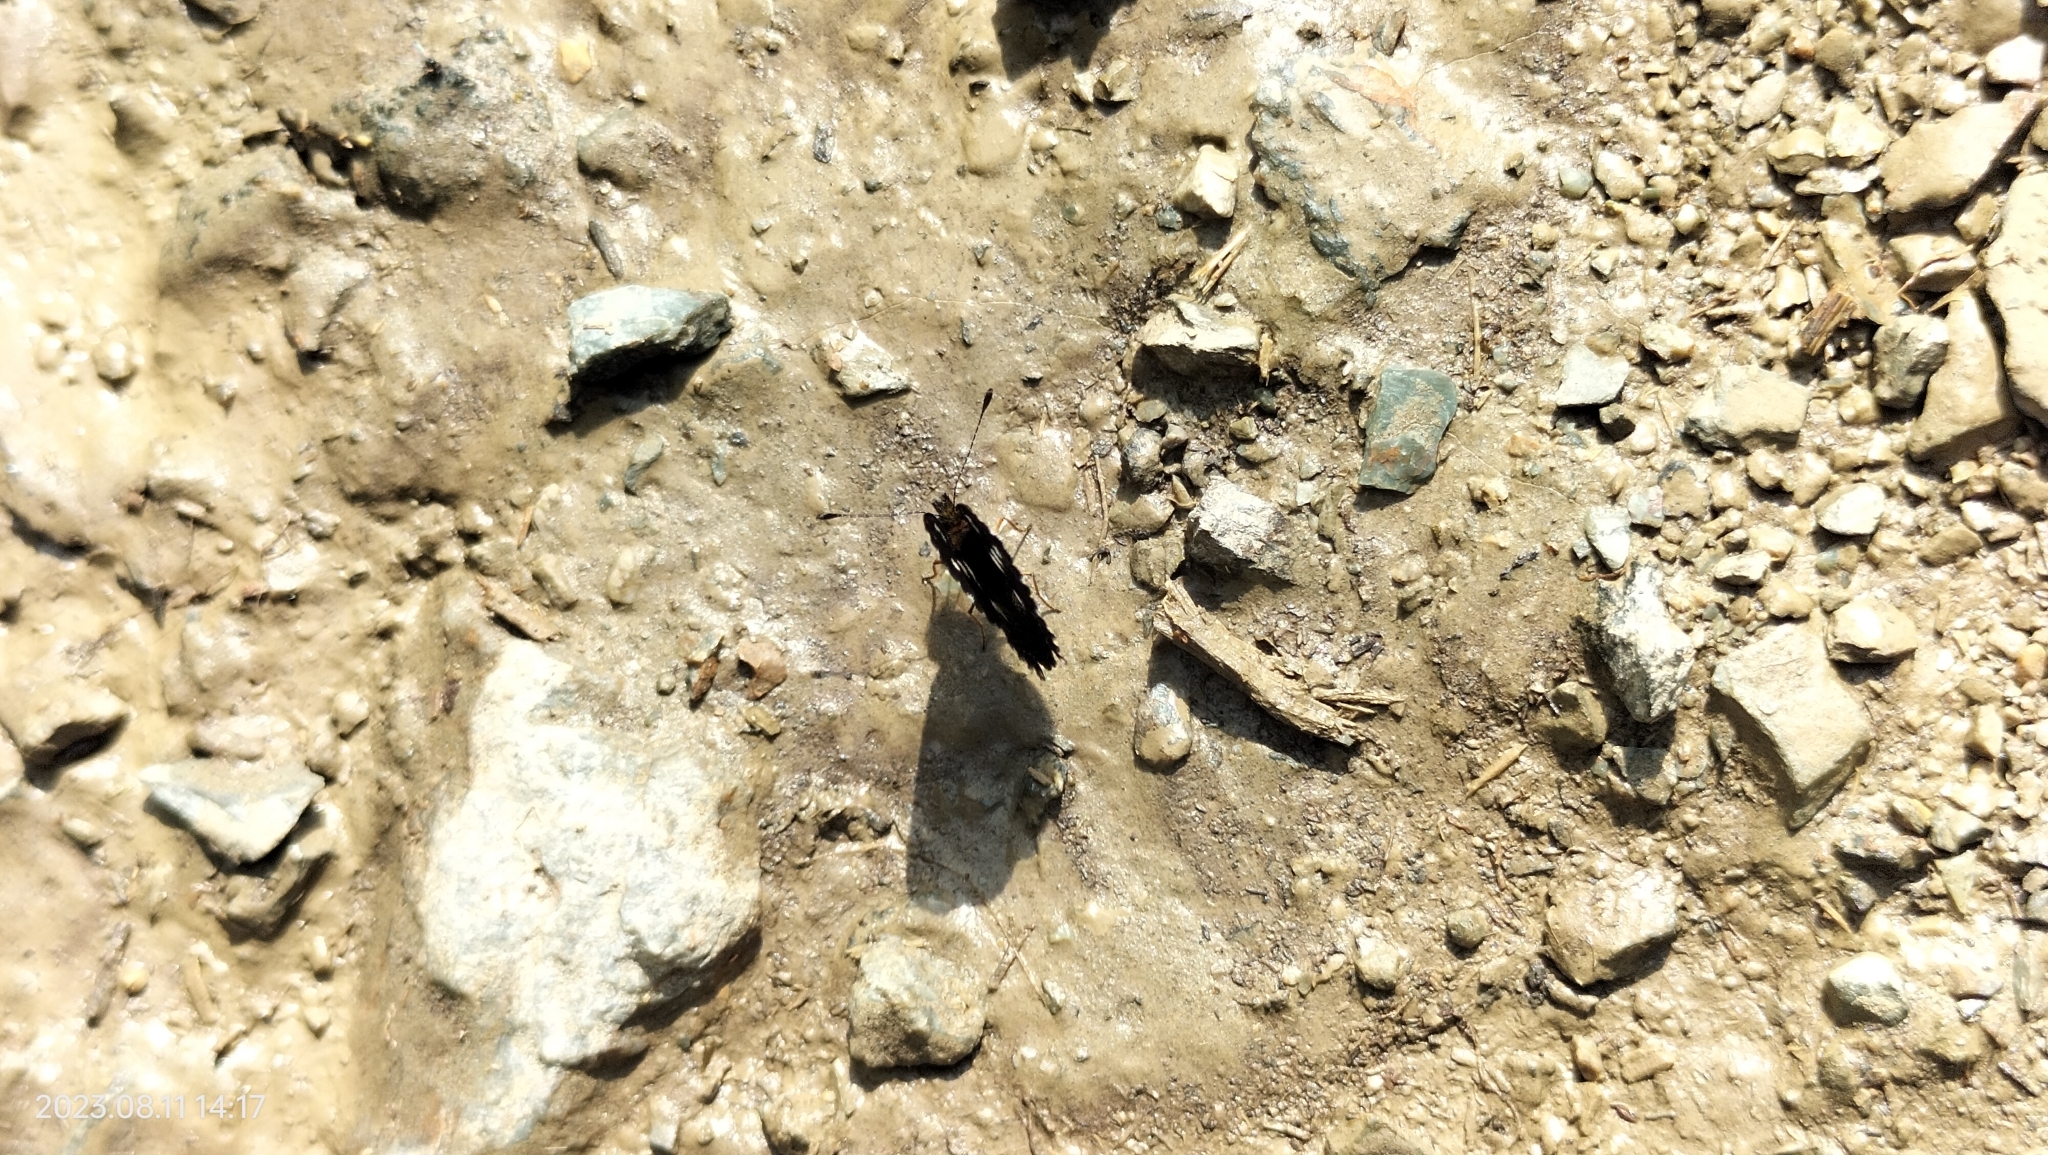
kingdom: Animalia
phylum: Arthropoda
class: Insecta
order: Lepidoptera
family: Nymphalidae
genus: Dagon
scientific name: Dagon pusilla
